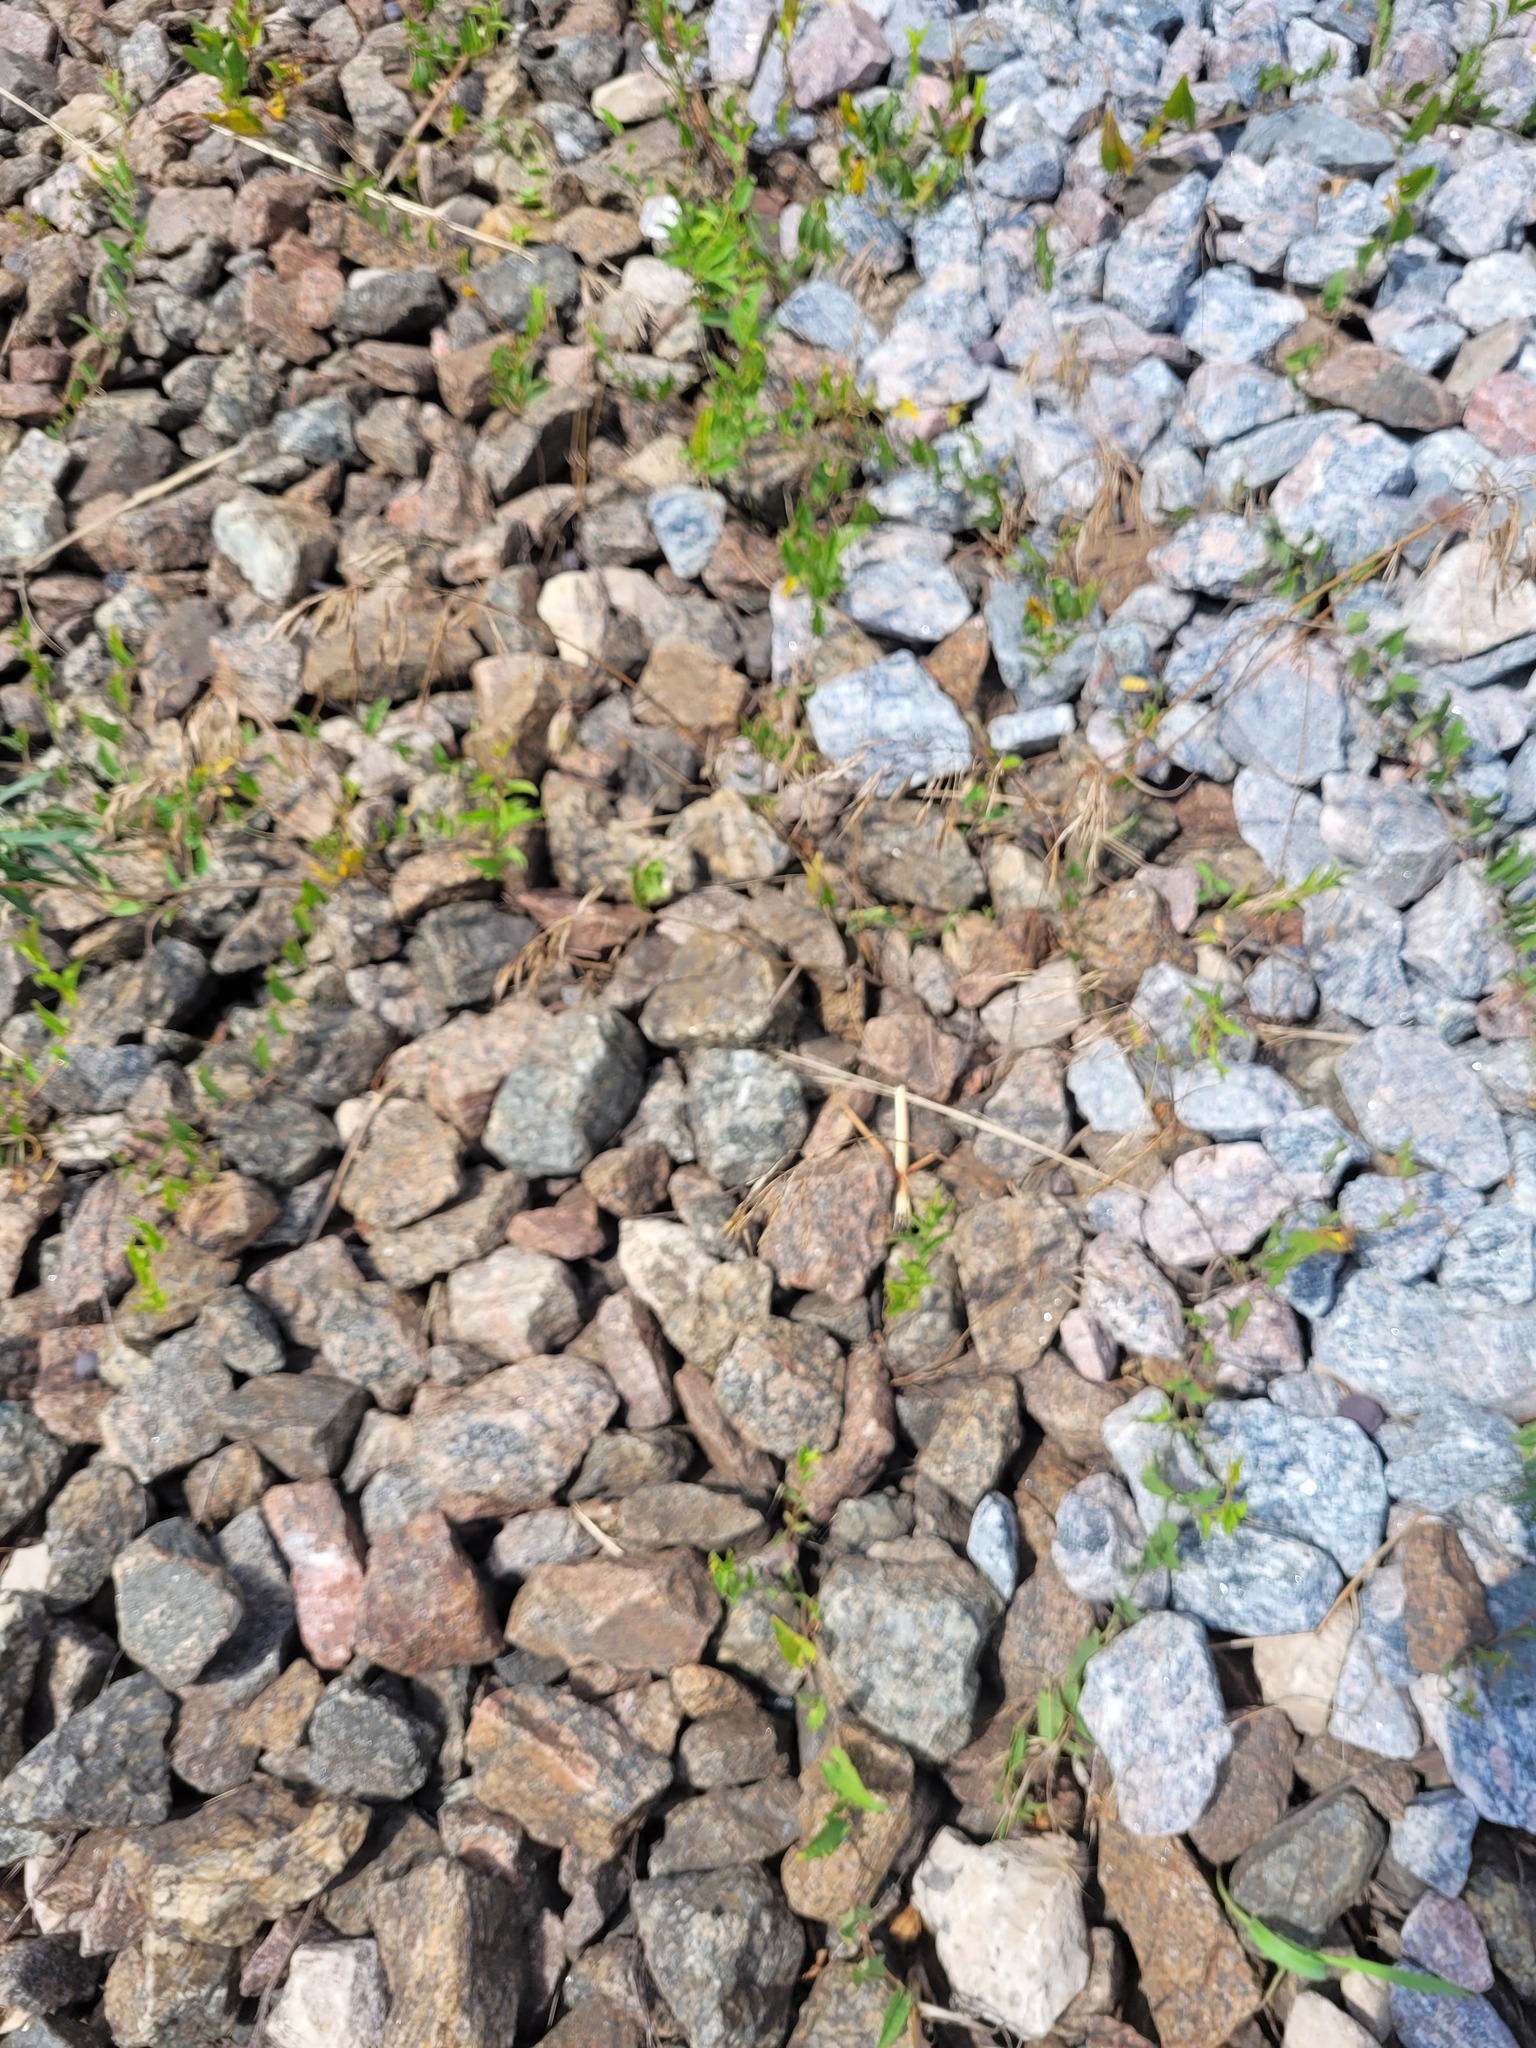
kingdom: Plantae
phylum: Tracheophyta
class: Liliopsida
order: Poales
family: Poaceae
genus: Bromus
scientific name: Bromus tectorum
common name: Cheatgrass
